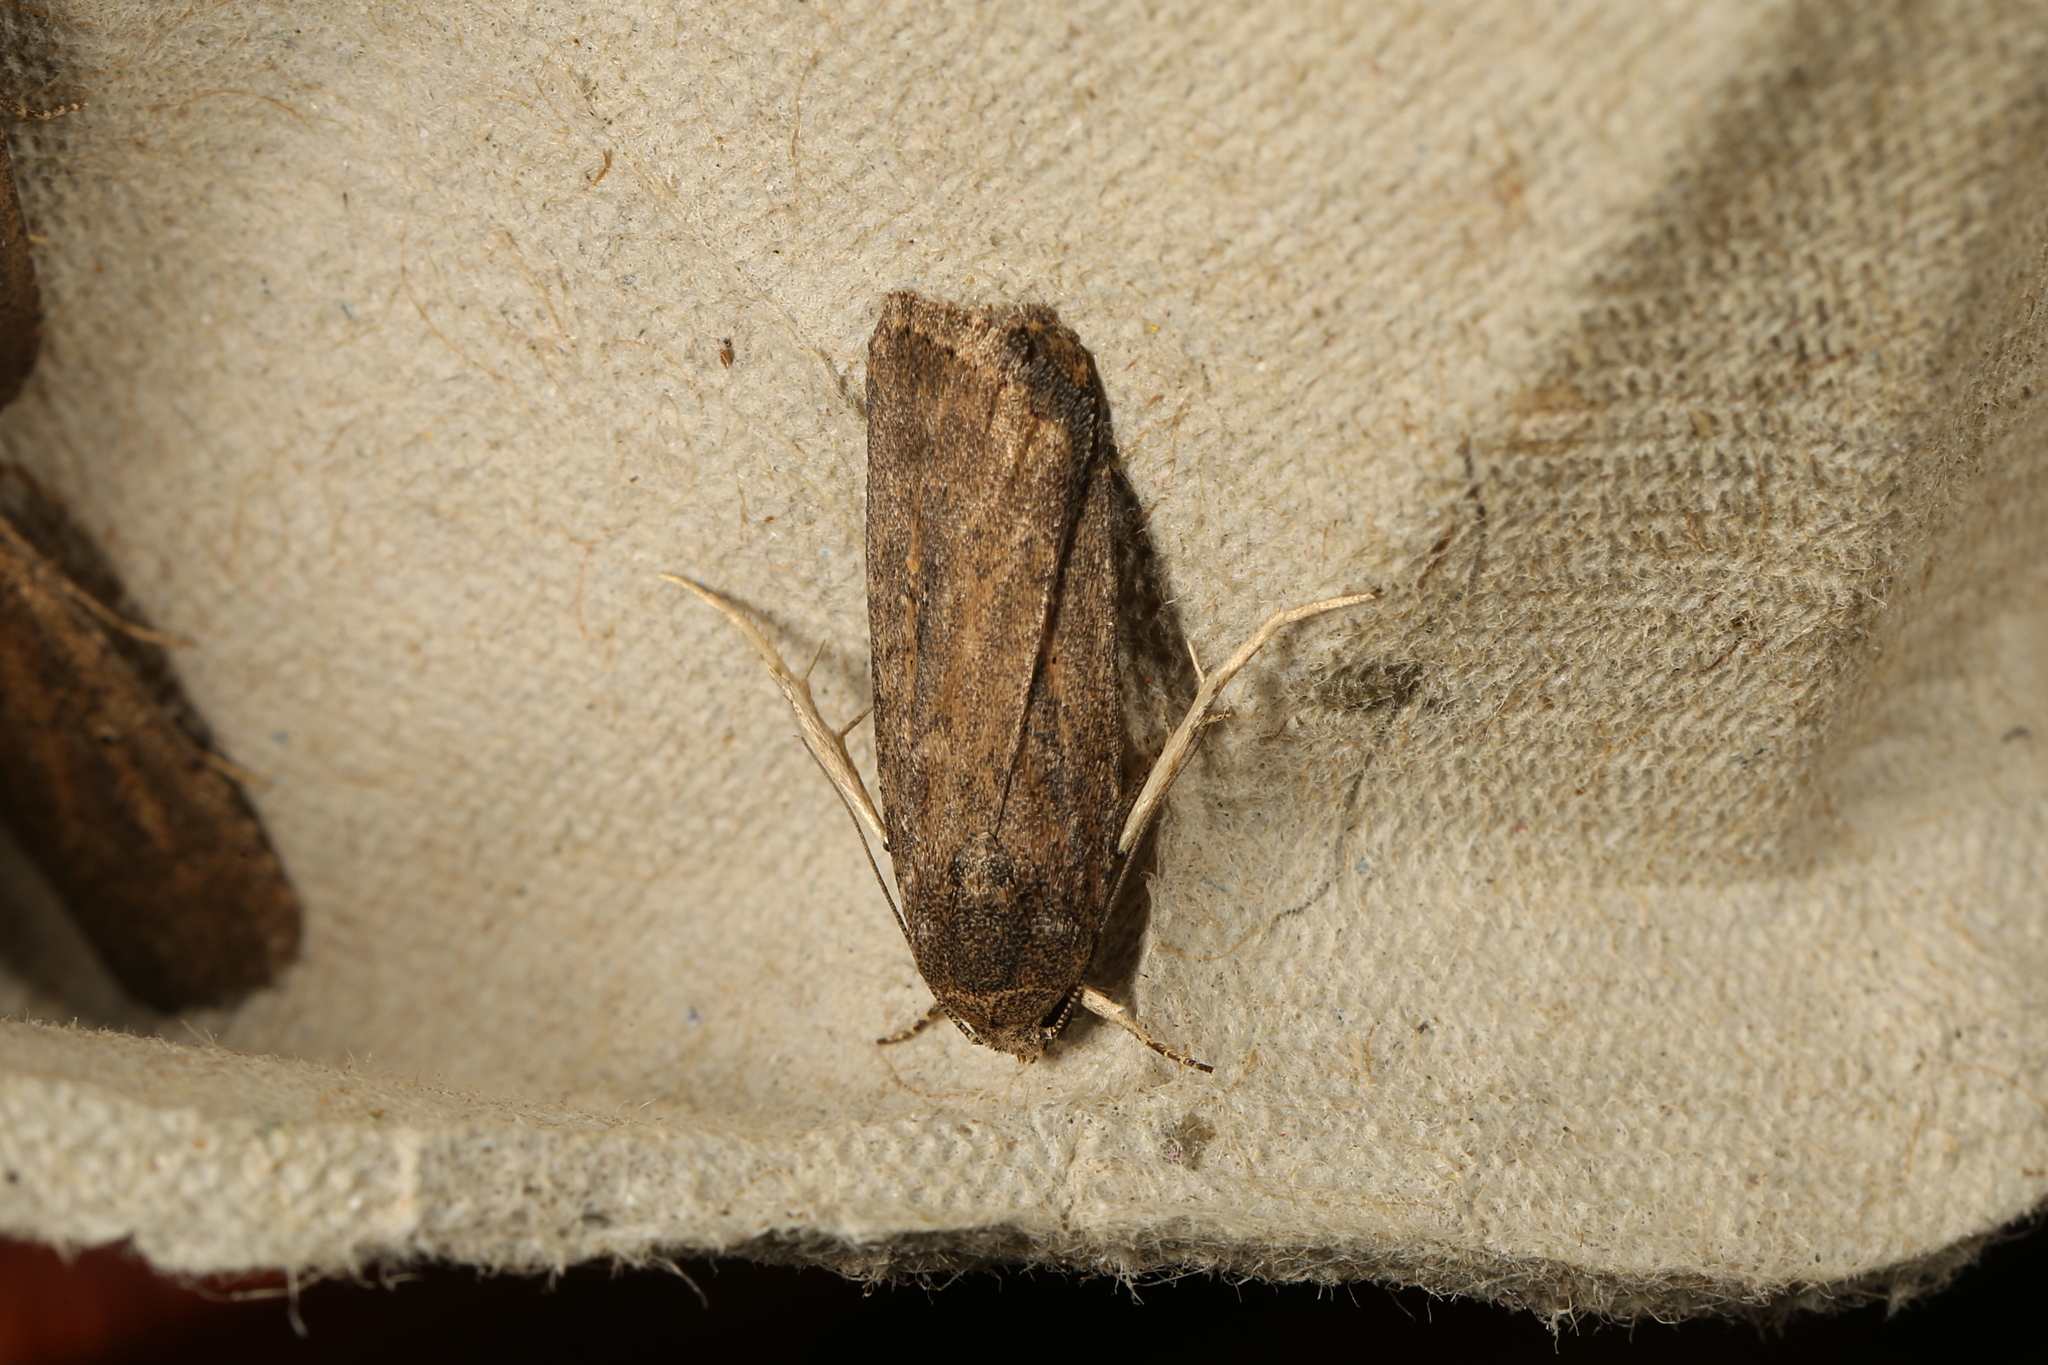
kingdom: Animalia
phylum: Arthropoda
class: Insecta
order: Lepidoptera
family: Noctuidae
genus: Athetis
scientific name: Athetis tenuis
